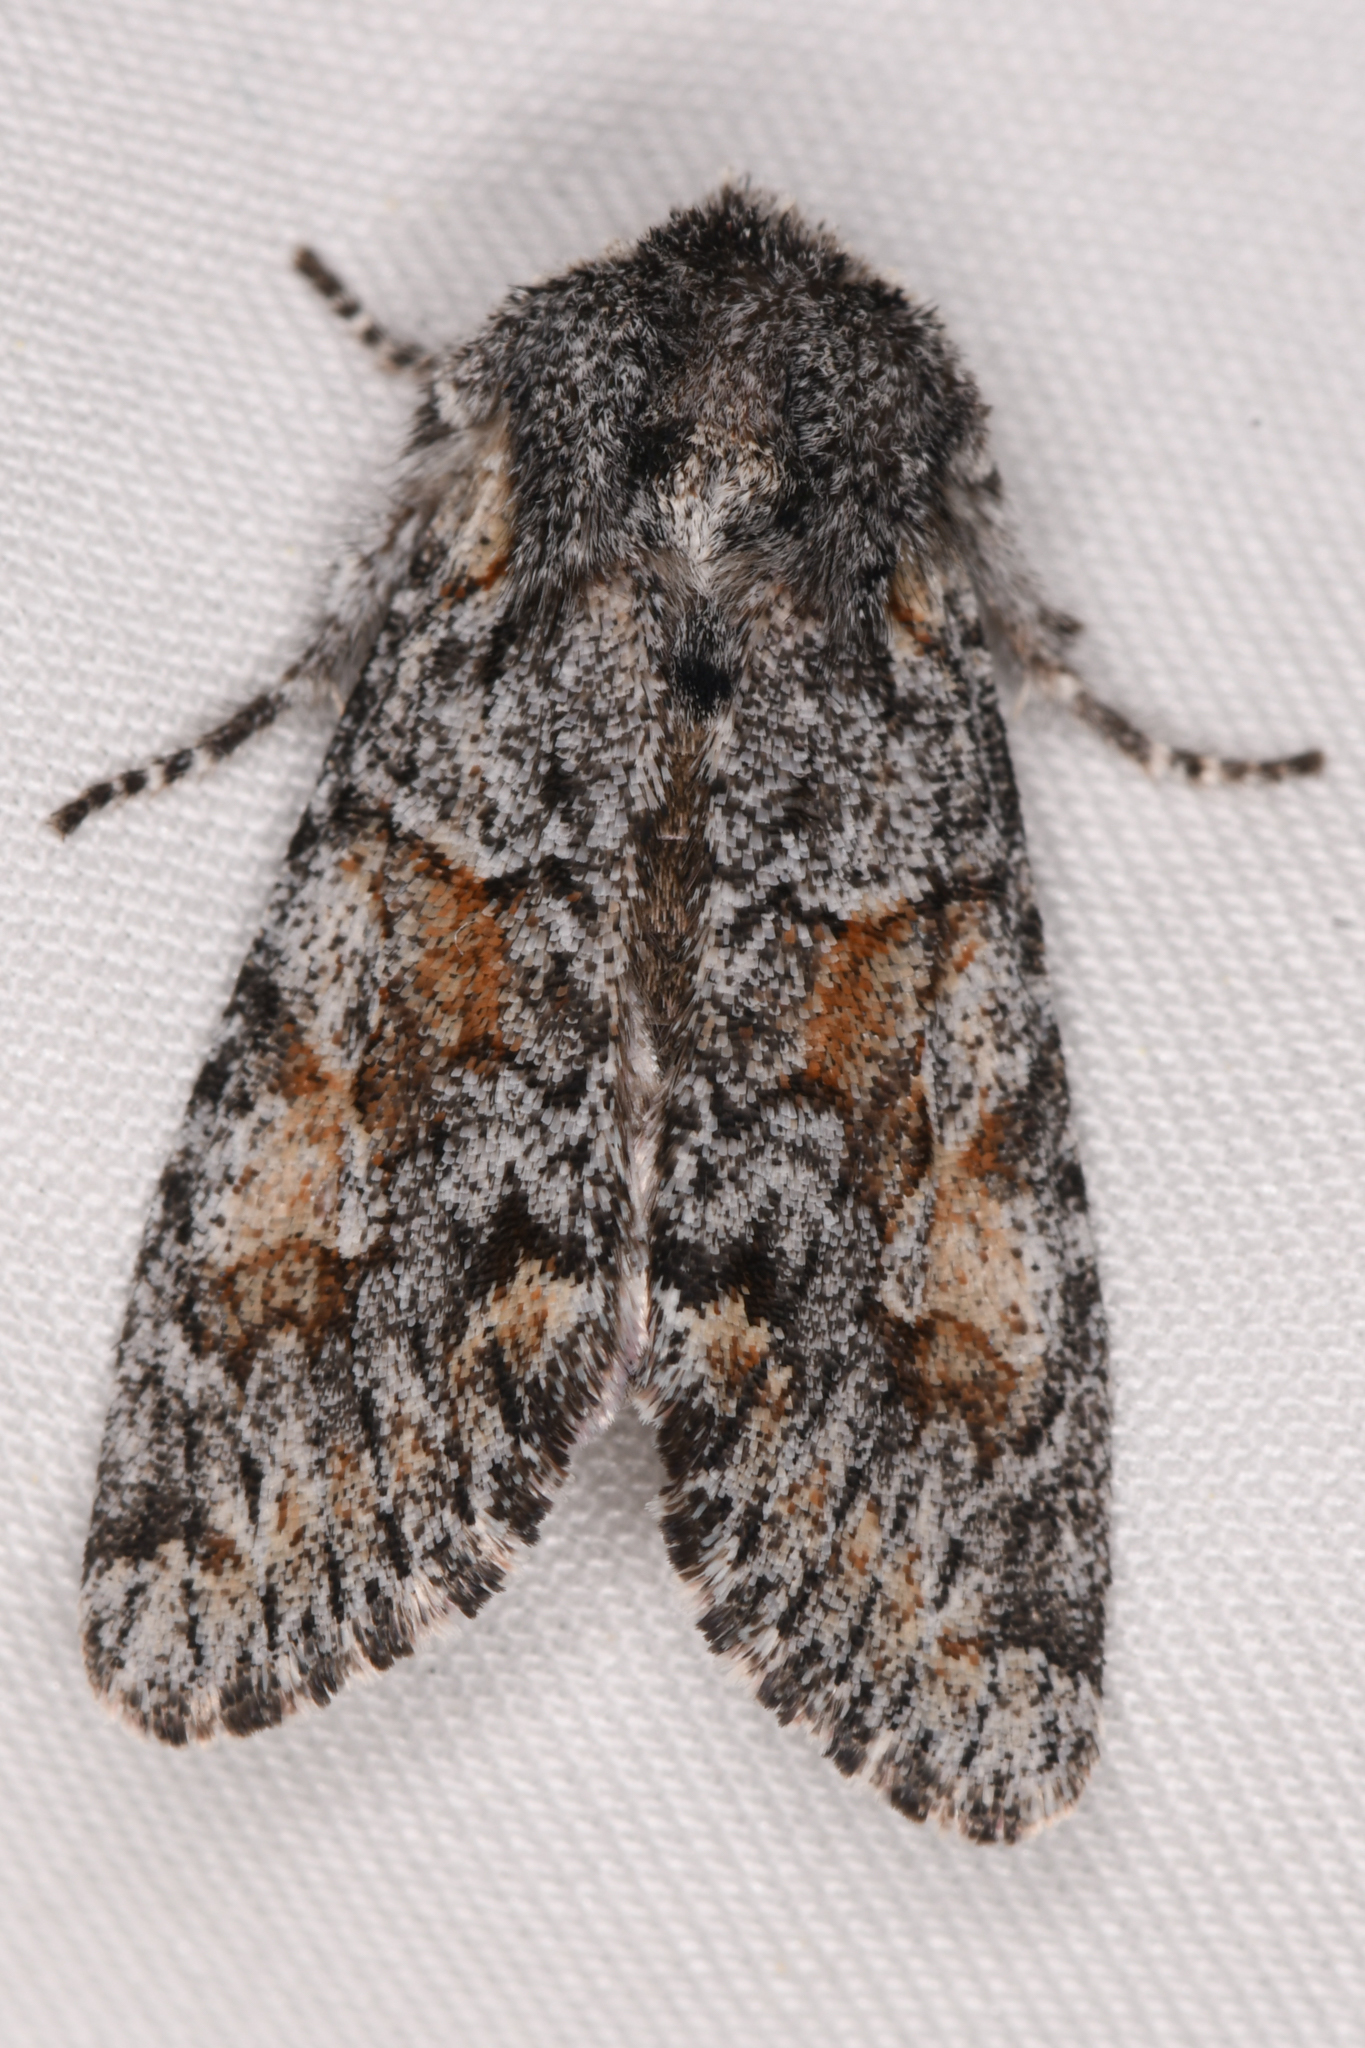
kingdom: Animalia
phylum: Arthropoda
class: Insecta
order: Lepidoptera
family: Noctuidae
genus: Egira
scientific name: Egira variabilis
